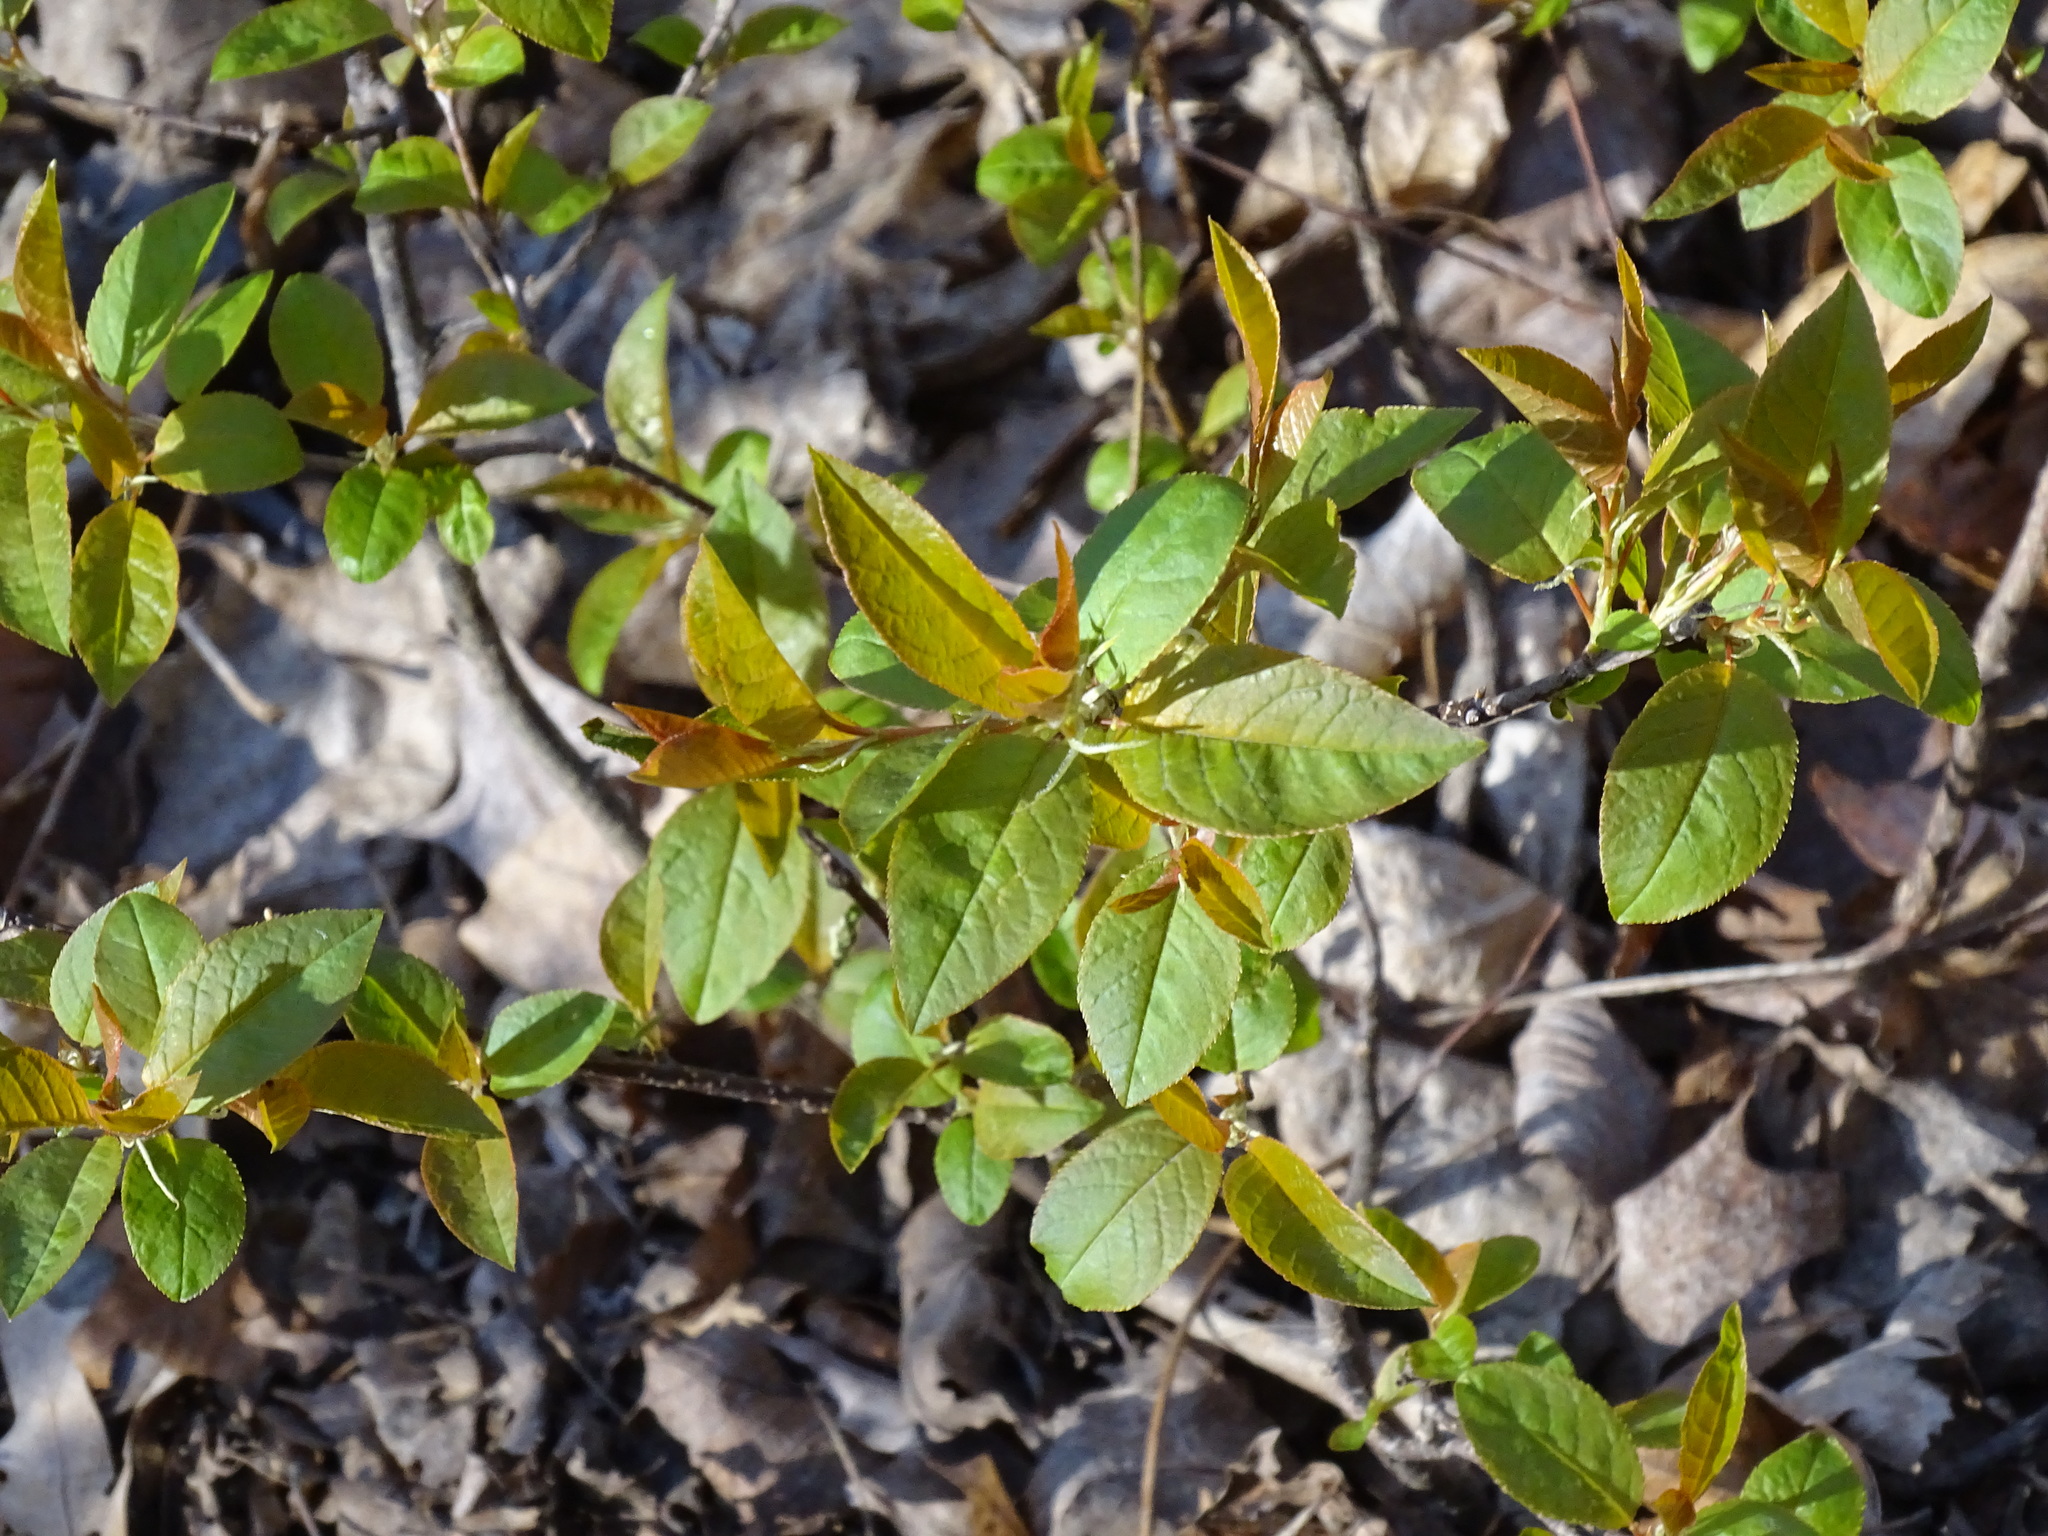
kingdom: Plantae
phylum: Tracheophyta
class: Magnoliopsida
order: Rosales
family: Rosaceae
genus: Prunus
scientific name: Prunus virginiana
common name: Chokecherry
